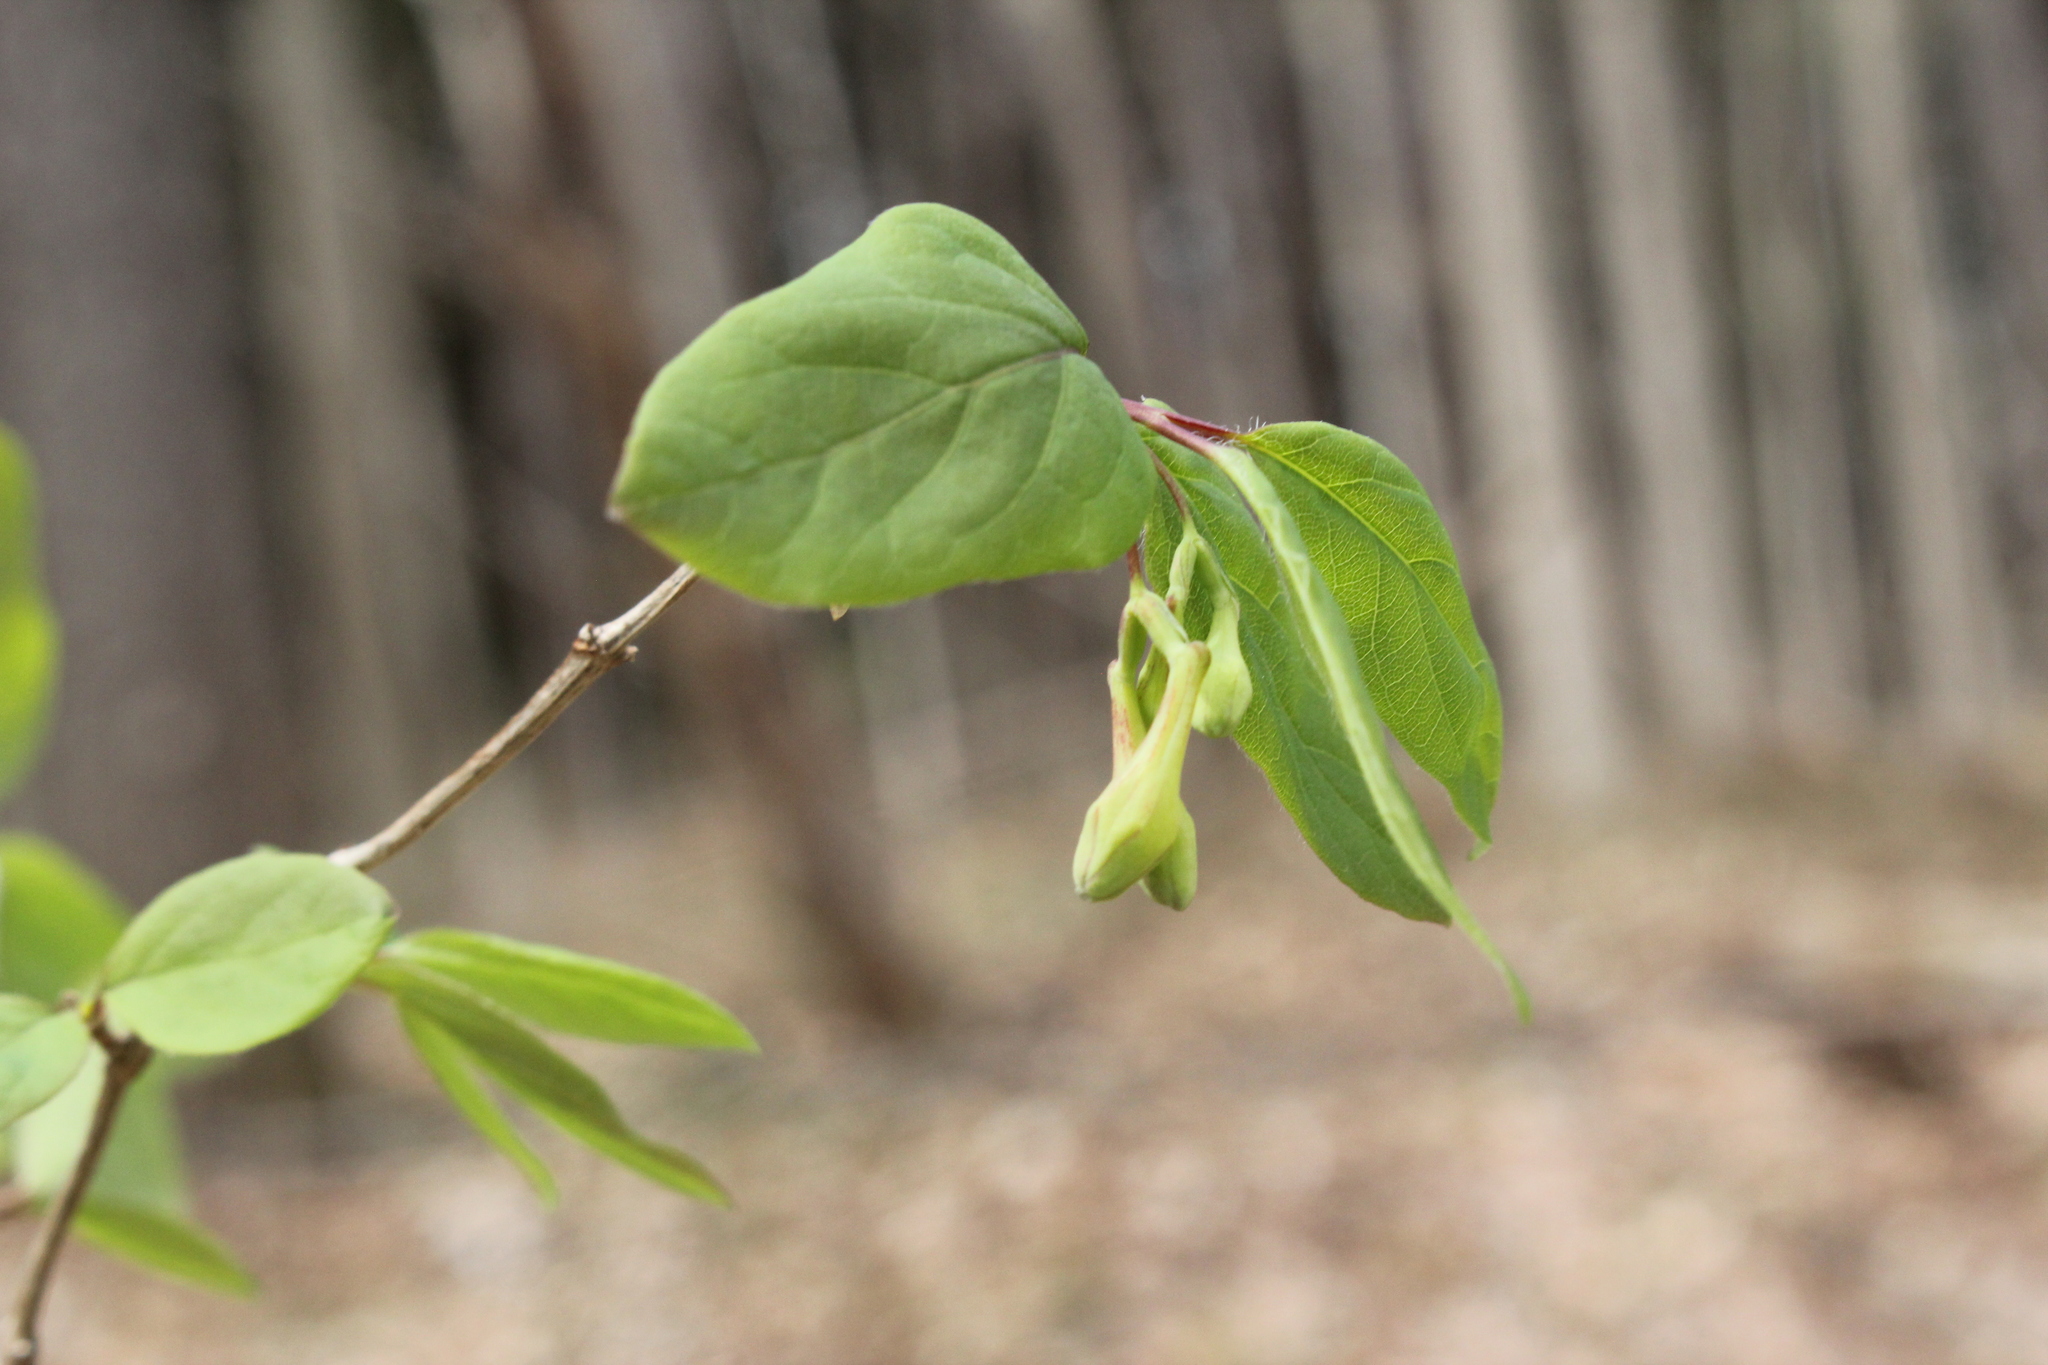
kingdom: Plantae
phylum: Tracheophyta
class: Magnoliopsida
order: Dipsacales
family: Caprifoliaceae
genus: Lonicera
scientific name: Lonicera canadensis
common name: American fly-honeysuckle
